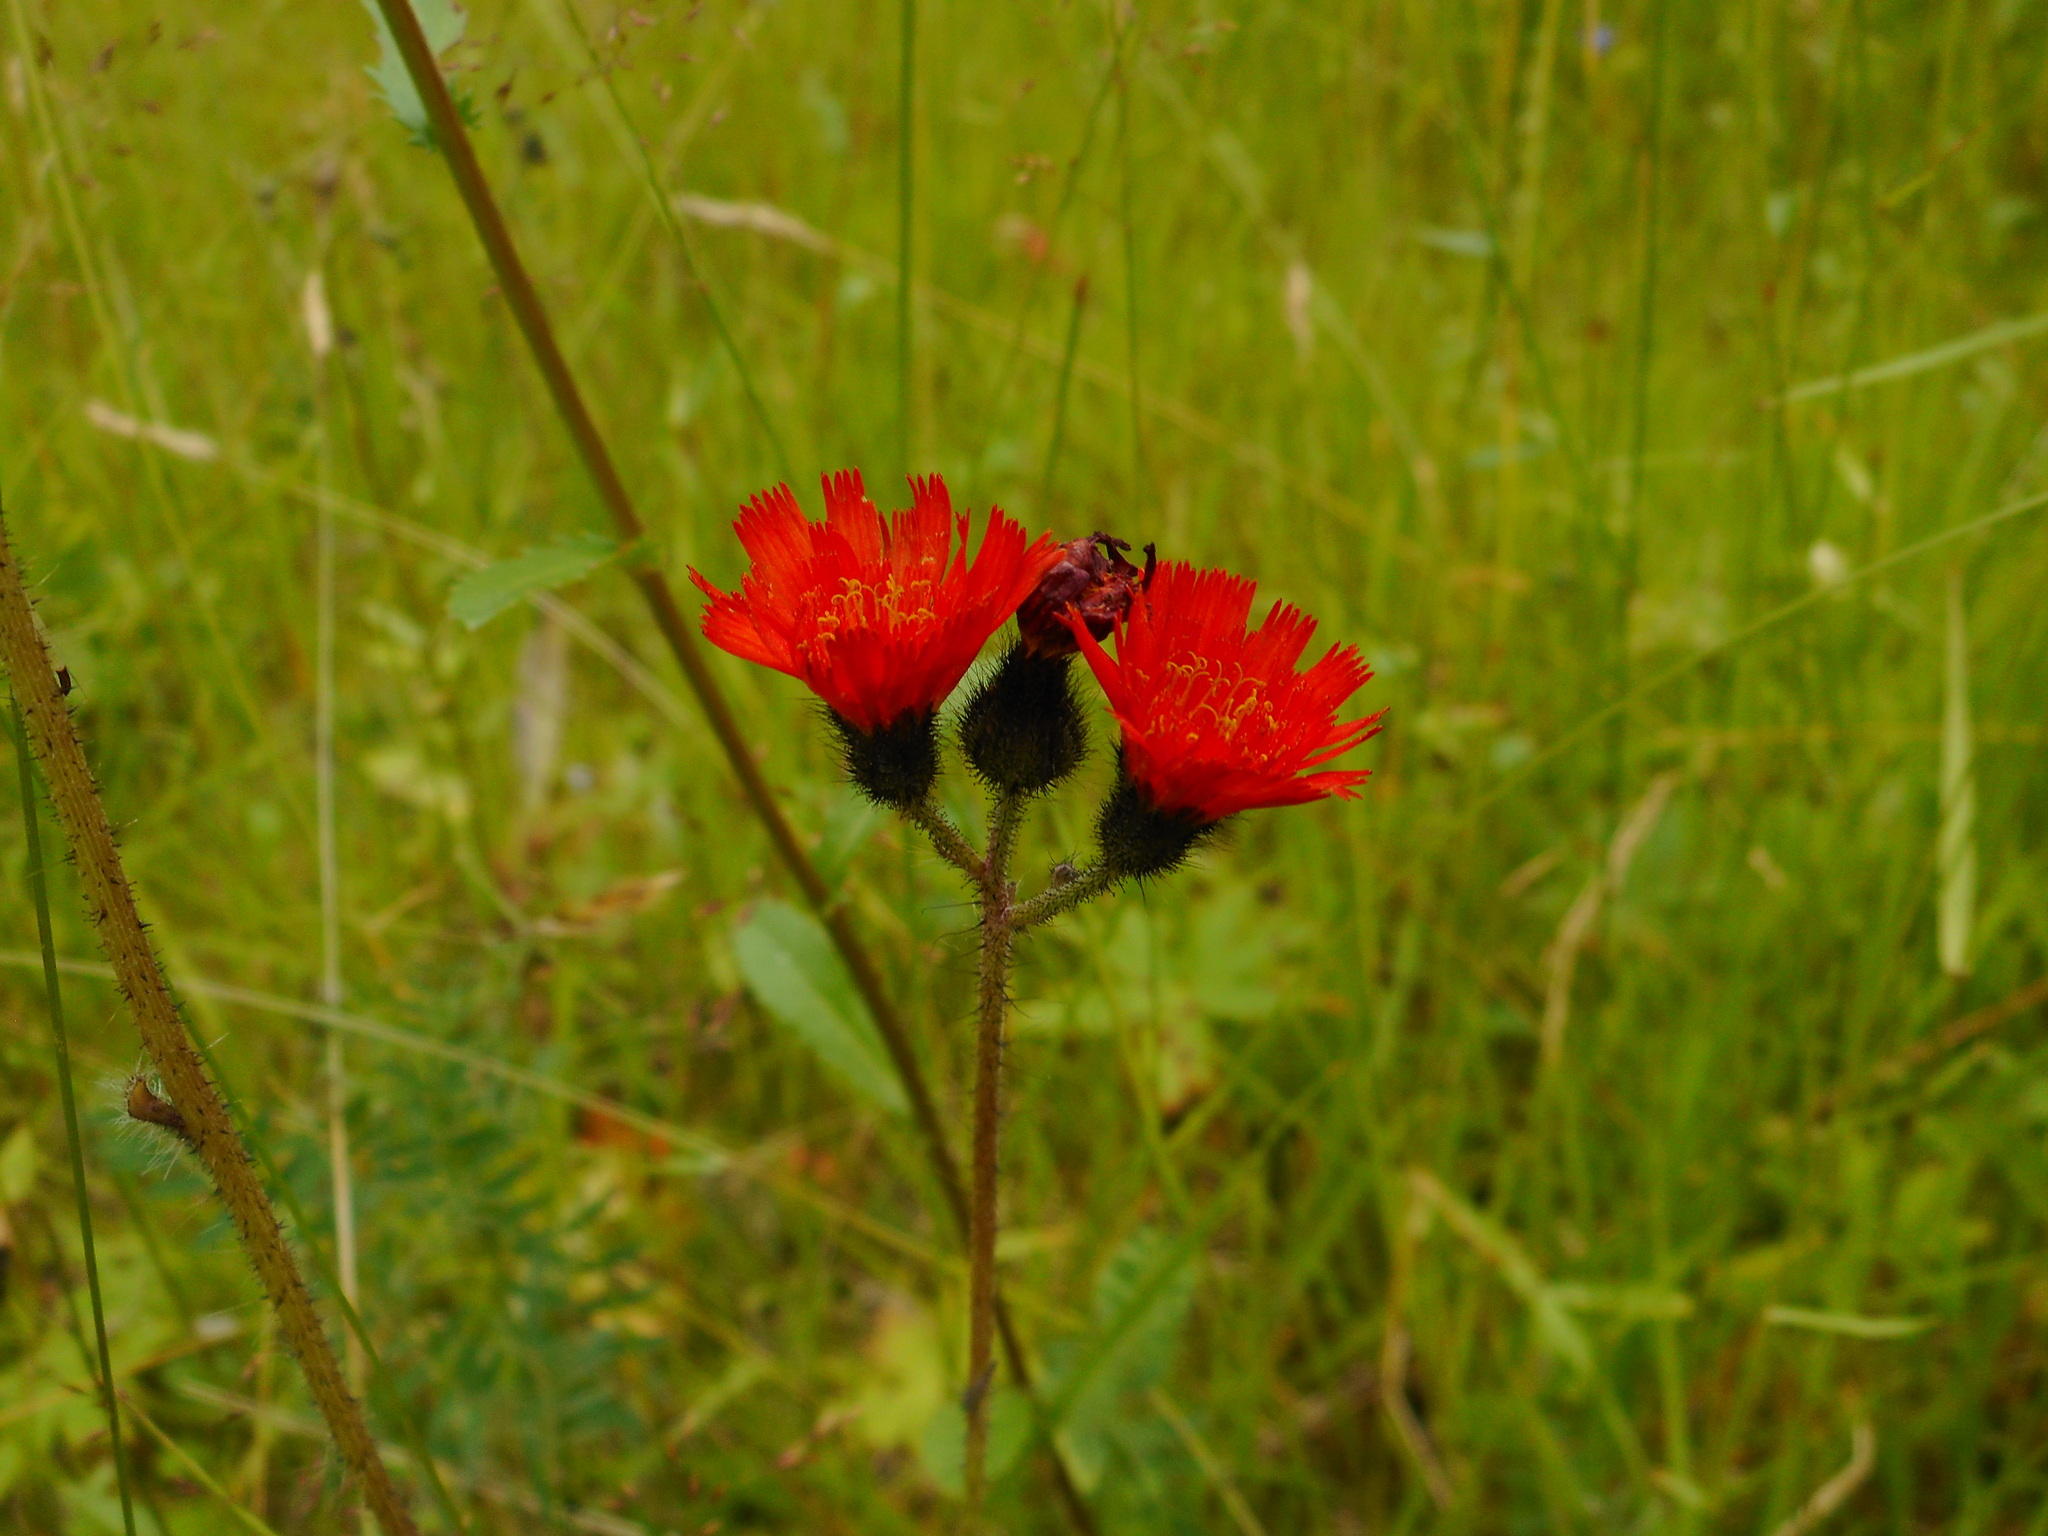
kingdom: Plantae
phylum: Tracheophyta
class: Magnoliopsida
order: Asterales
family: Asteraceae
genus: Pilosella
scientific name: Pilosella aurantiaca
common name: Fox-and-cubs
